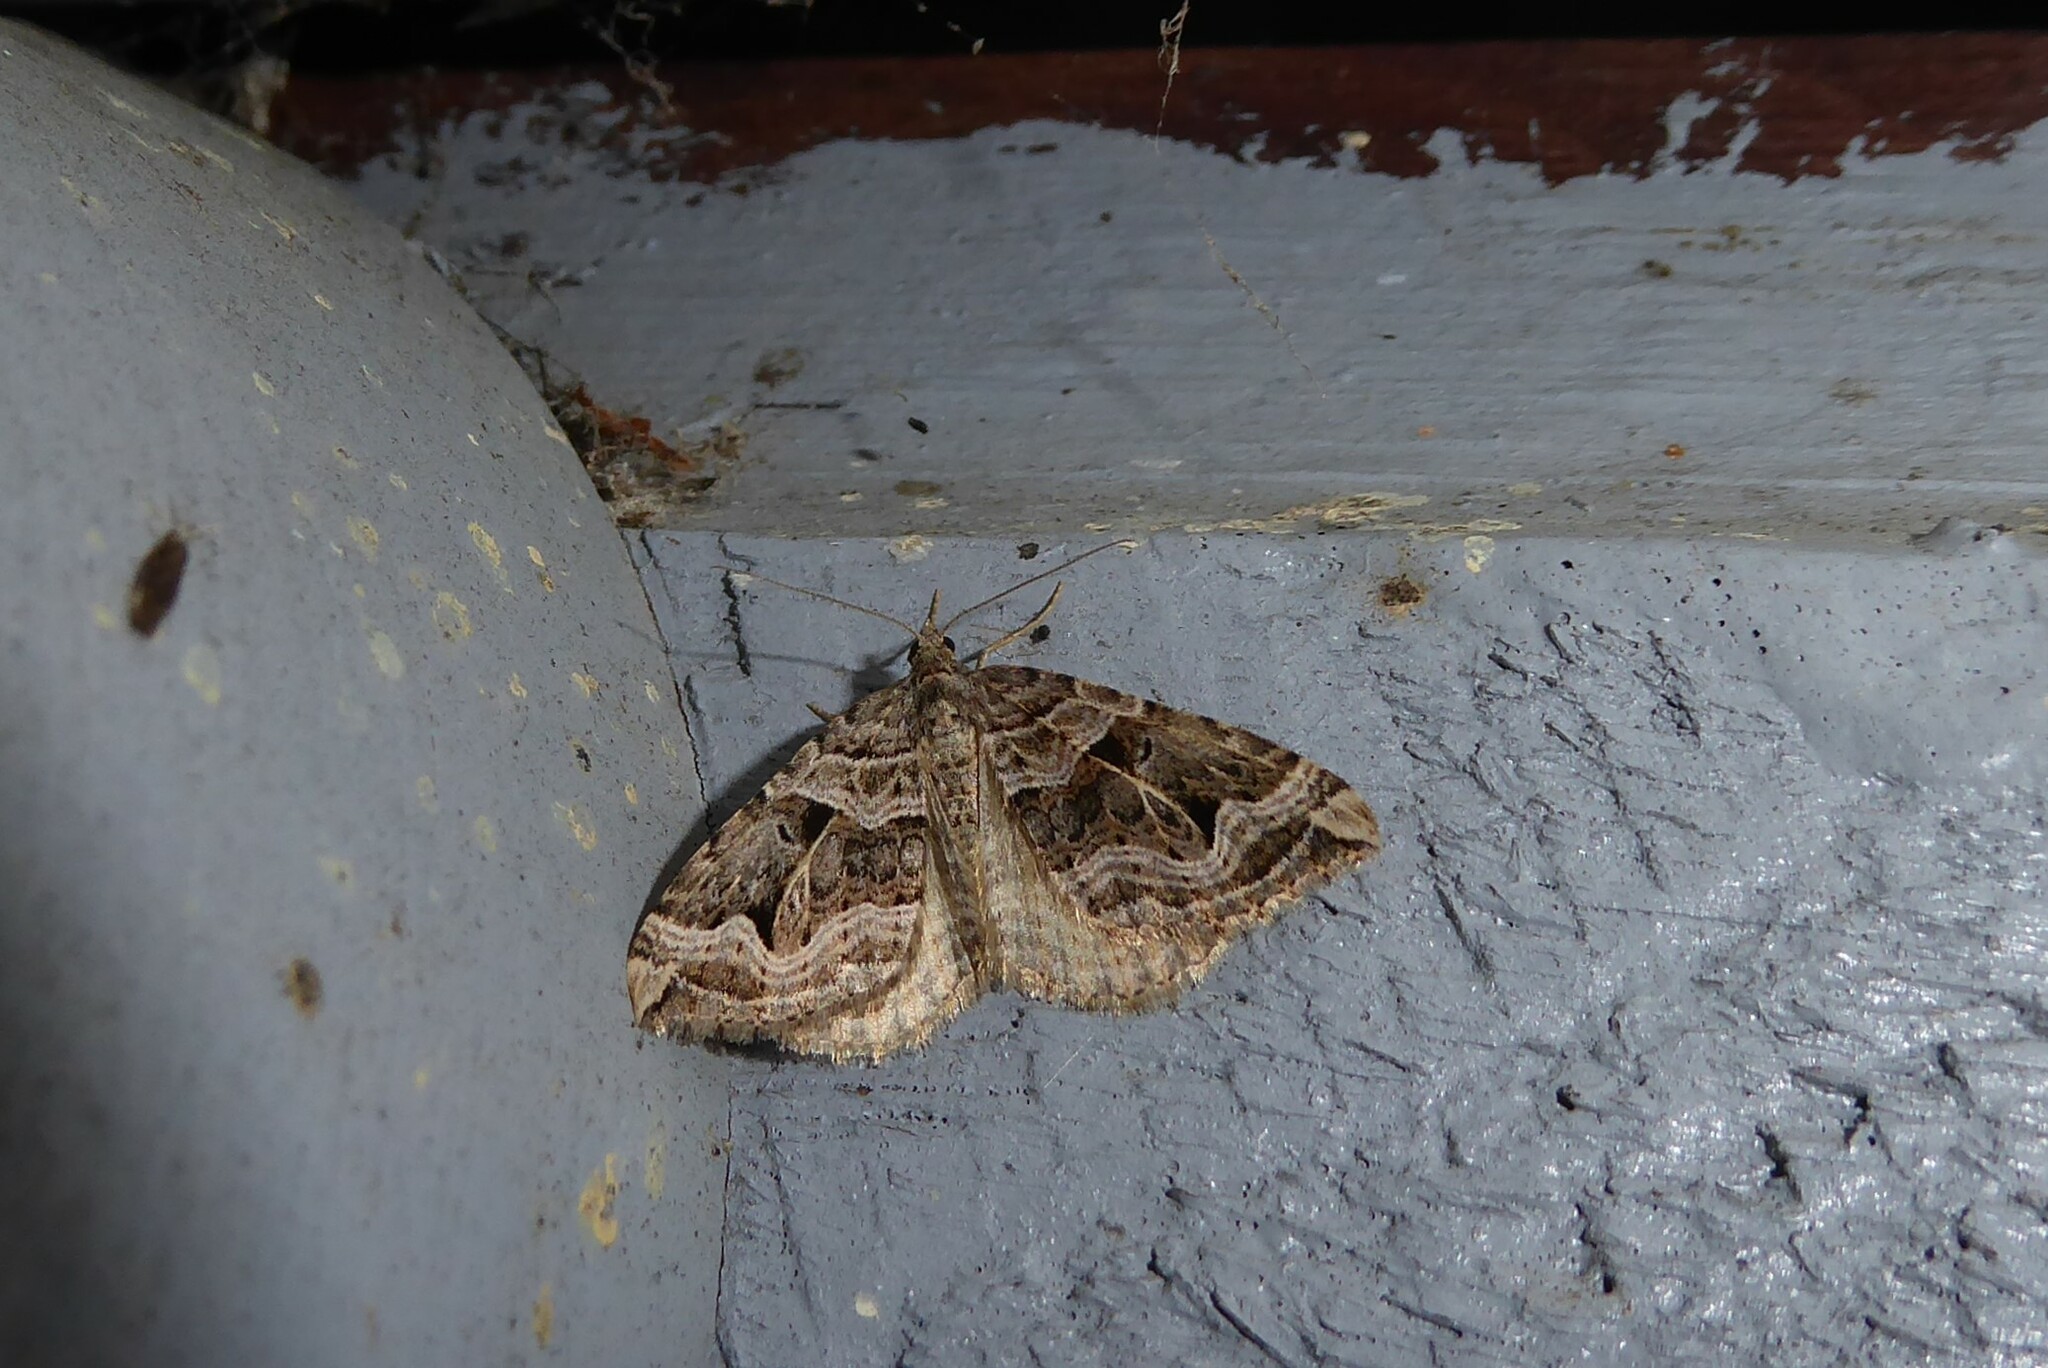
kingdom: Animalia
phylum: Arthropoda
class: Insecta
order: Lepidoptera
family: Geometridae
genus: Xanthorhoe
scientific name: Xanthorhoe semifissata
